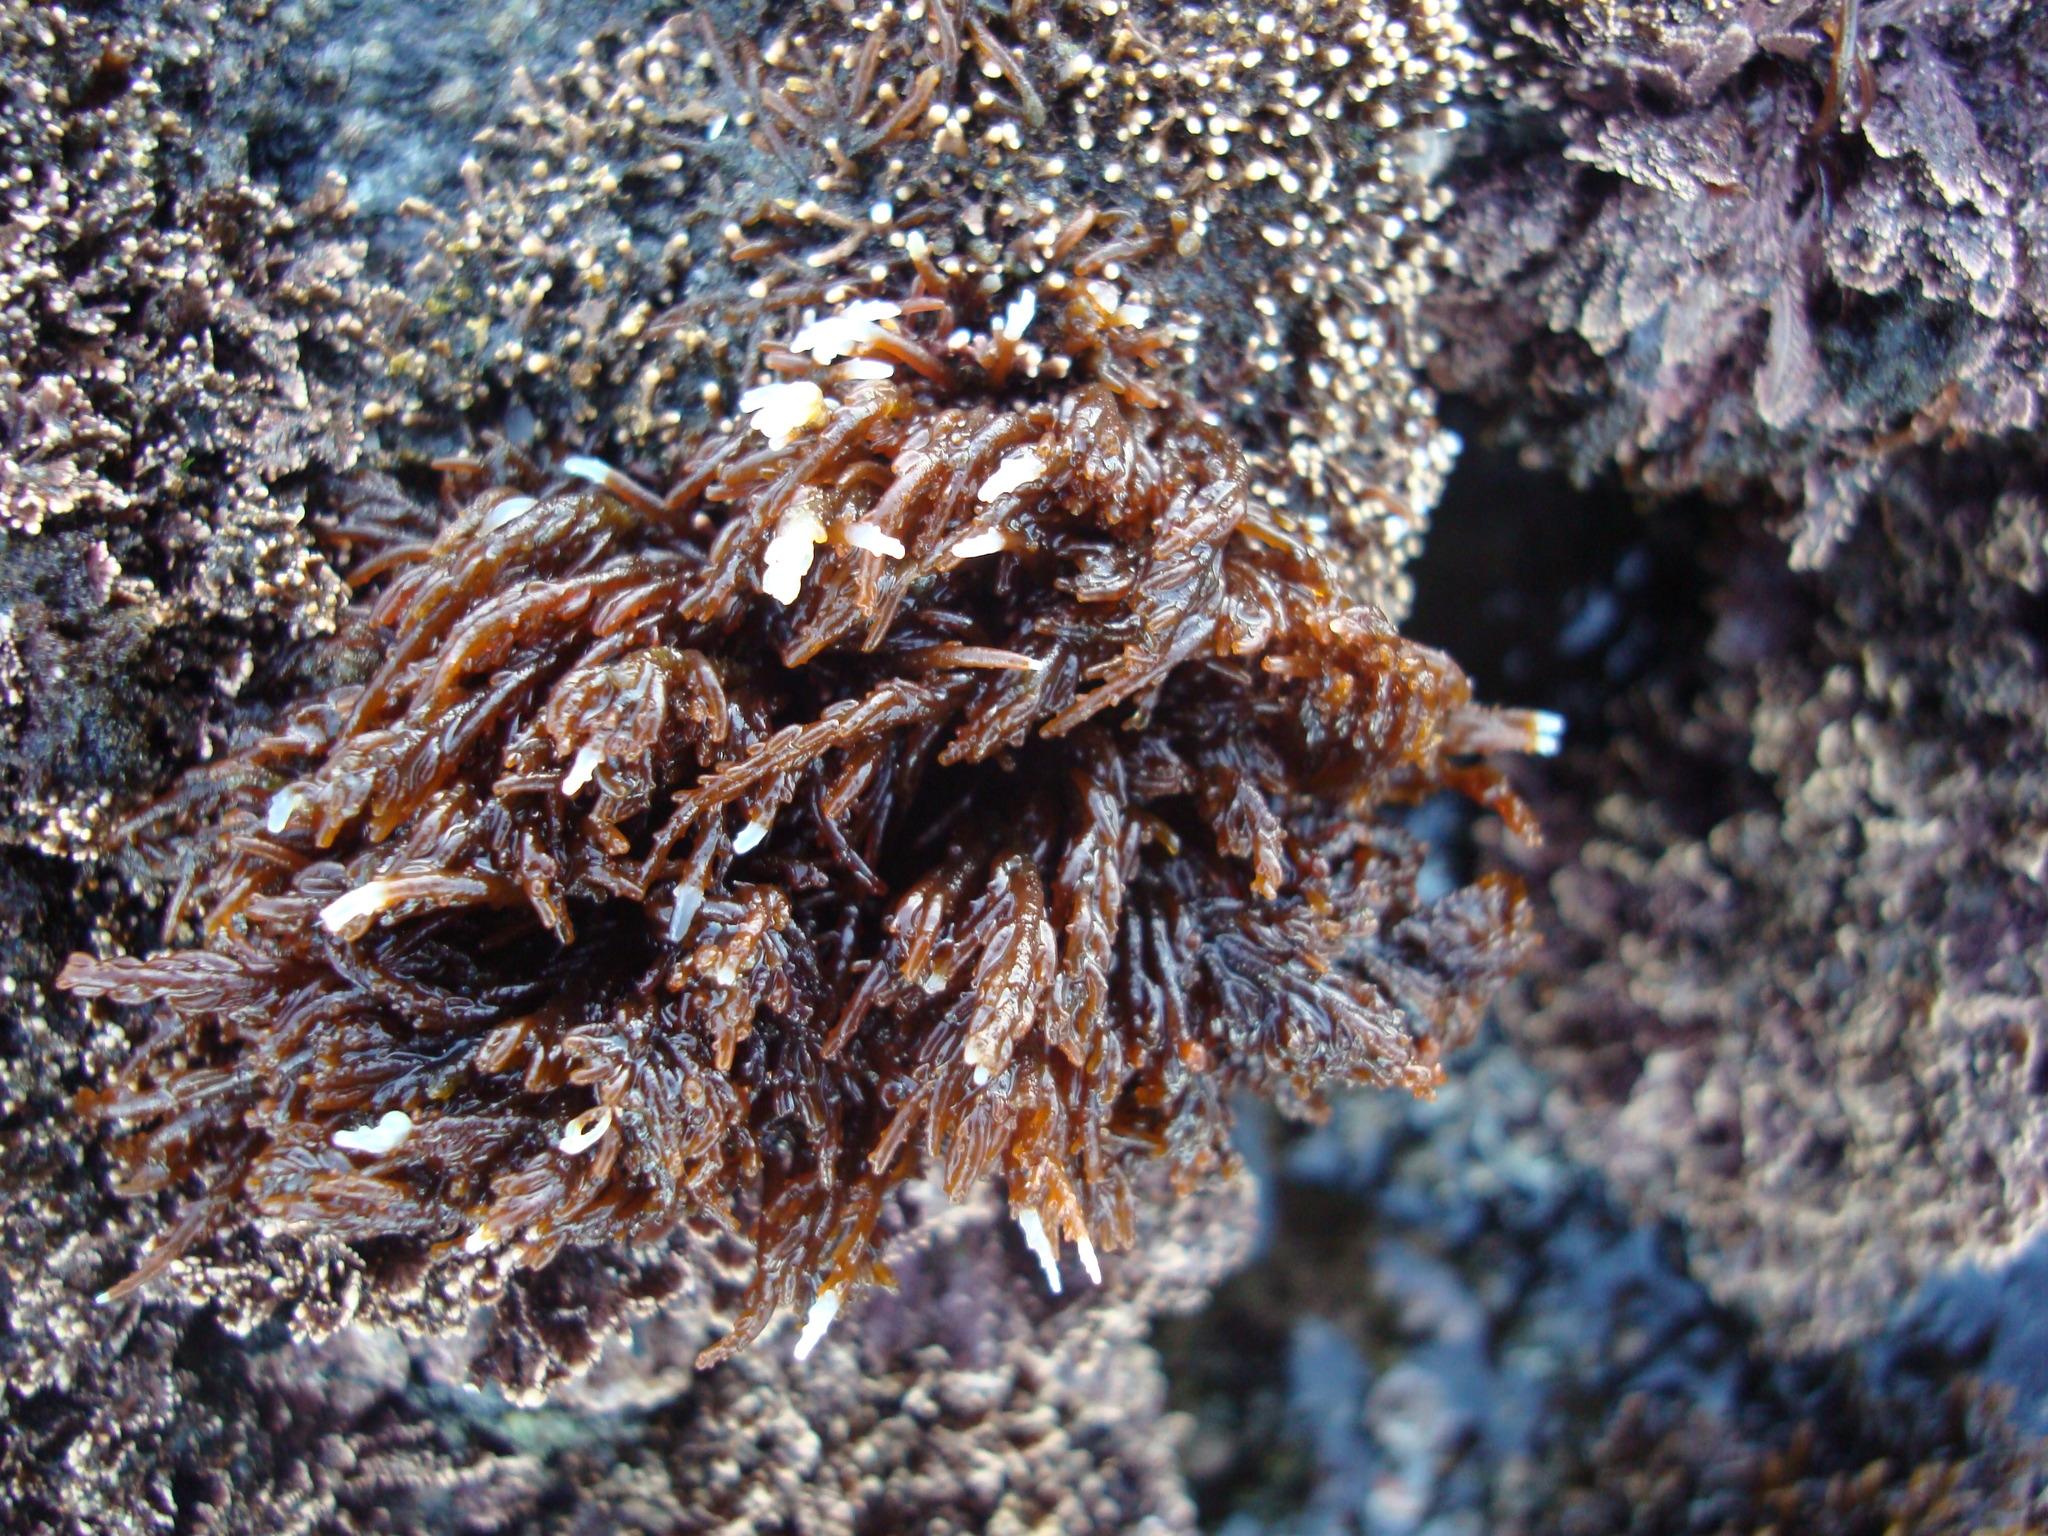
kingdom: Plantae
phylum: Rhodophyta
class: Florideophyceae
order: Ceramiales
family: Rhodomelaceae
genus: Chondria
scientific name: Chondria
